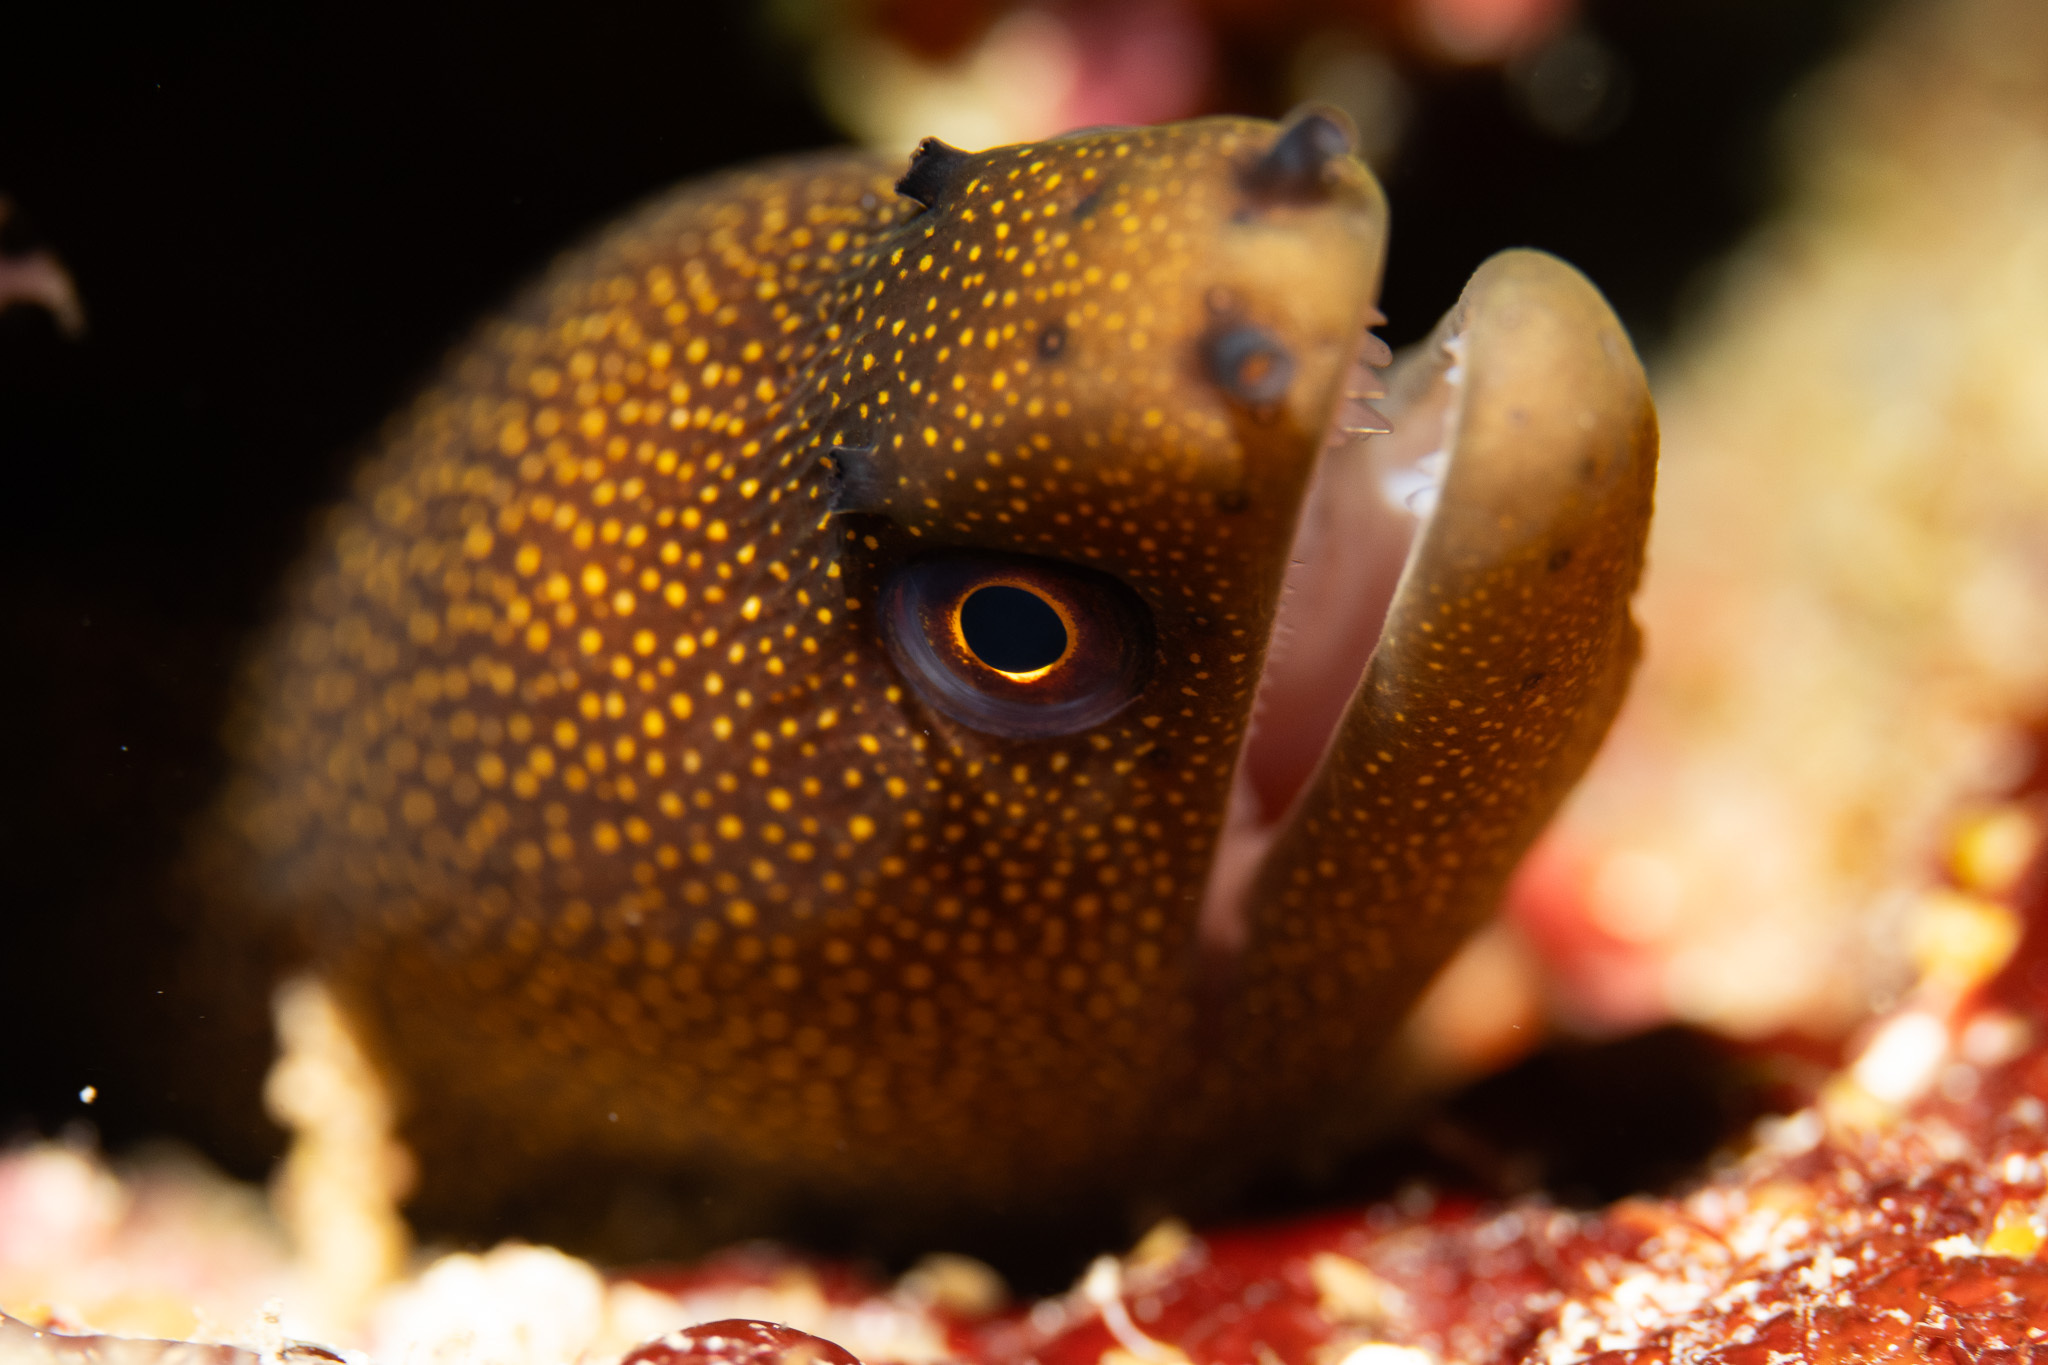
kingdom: Animalia
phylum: Chordata
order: Anguilliformes
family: Muraenidae
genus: Gymnothorax
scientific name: Gymnothorax miliaris
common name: Goldentail moray
